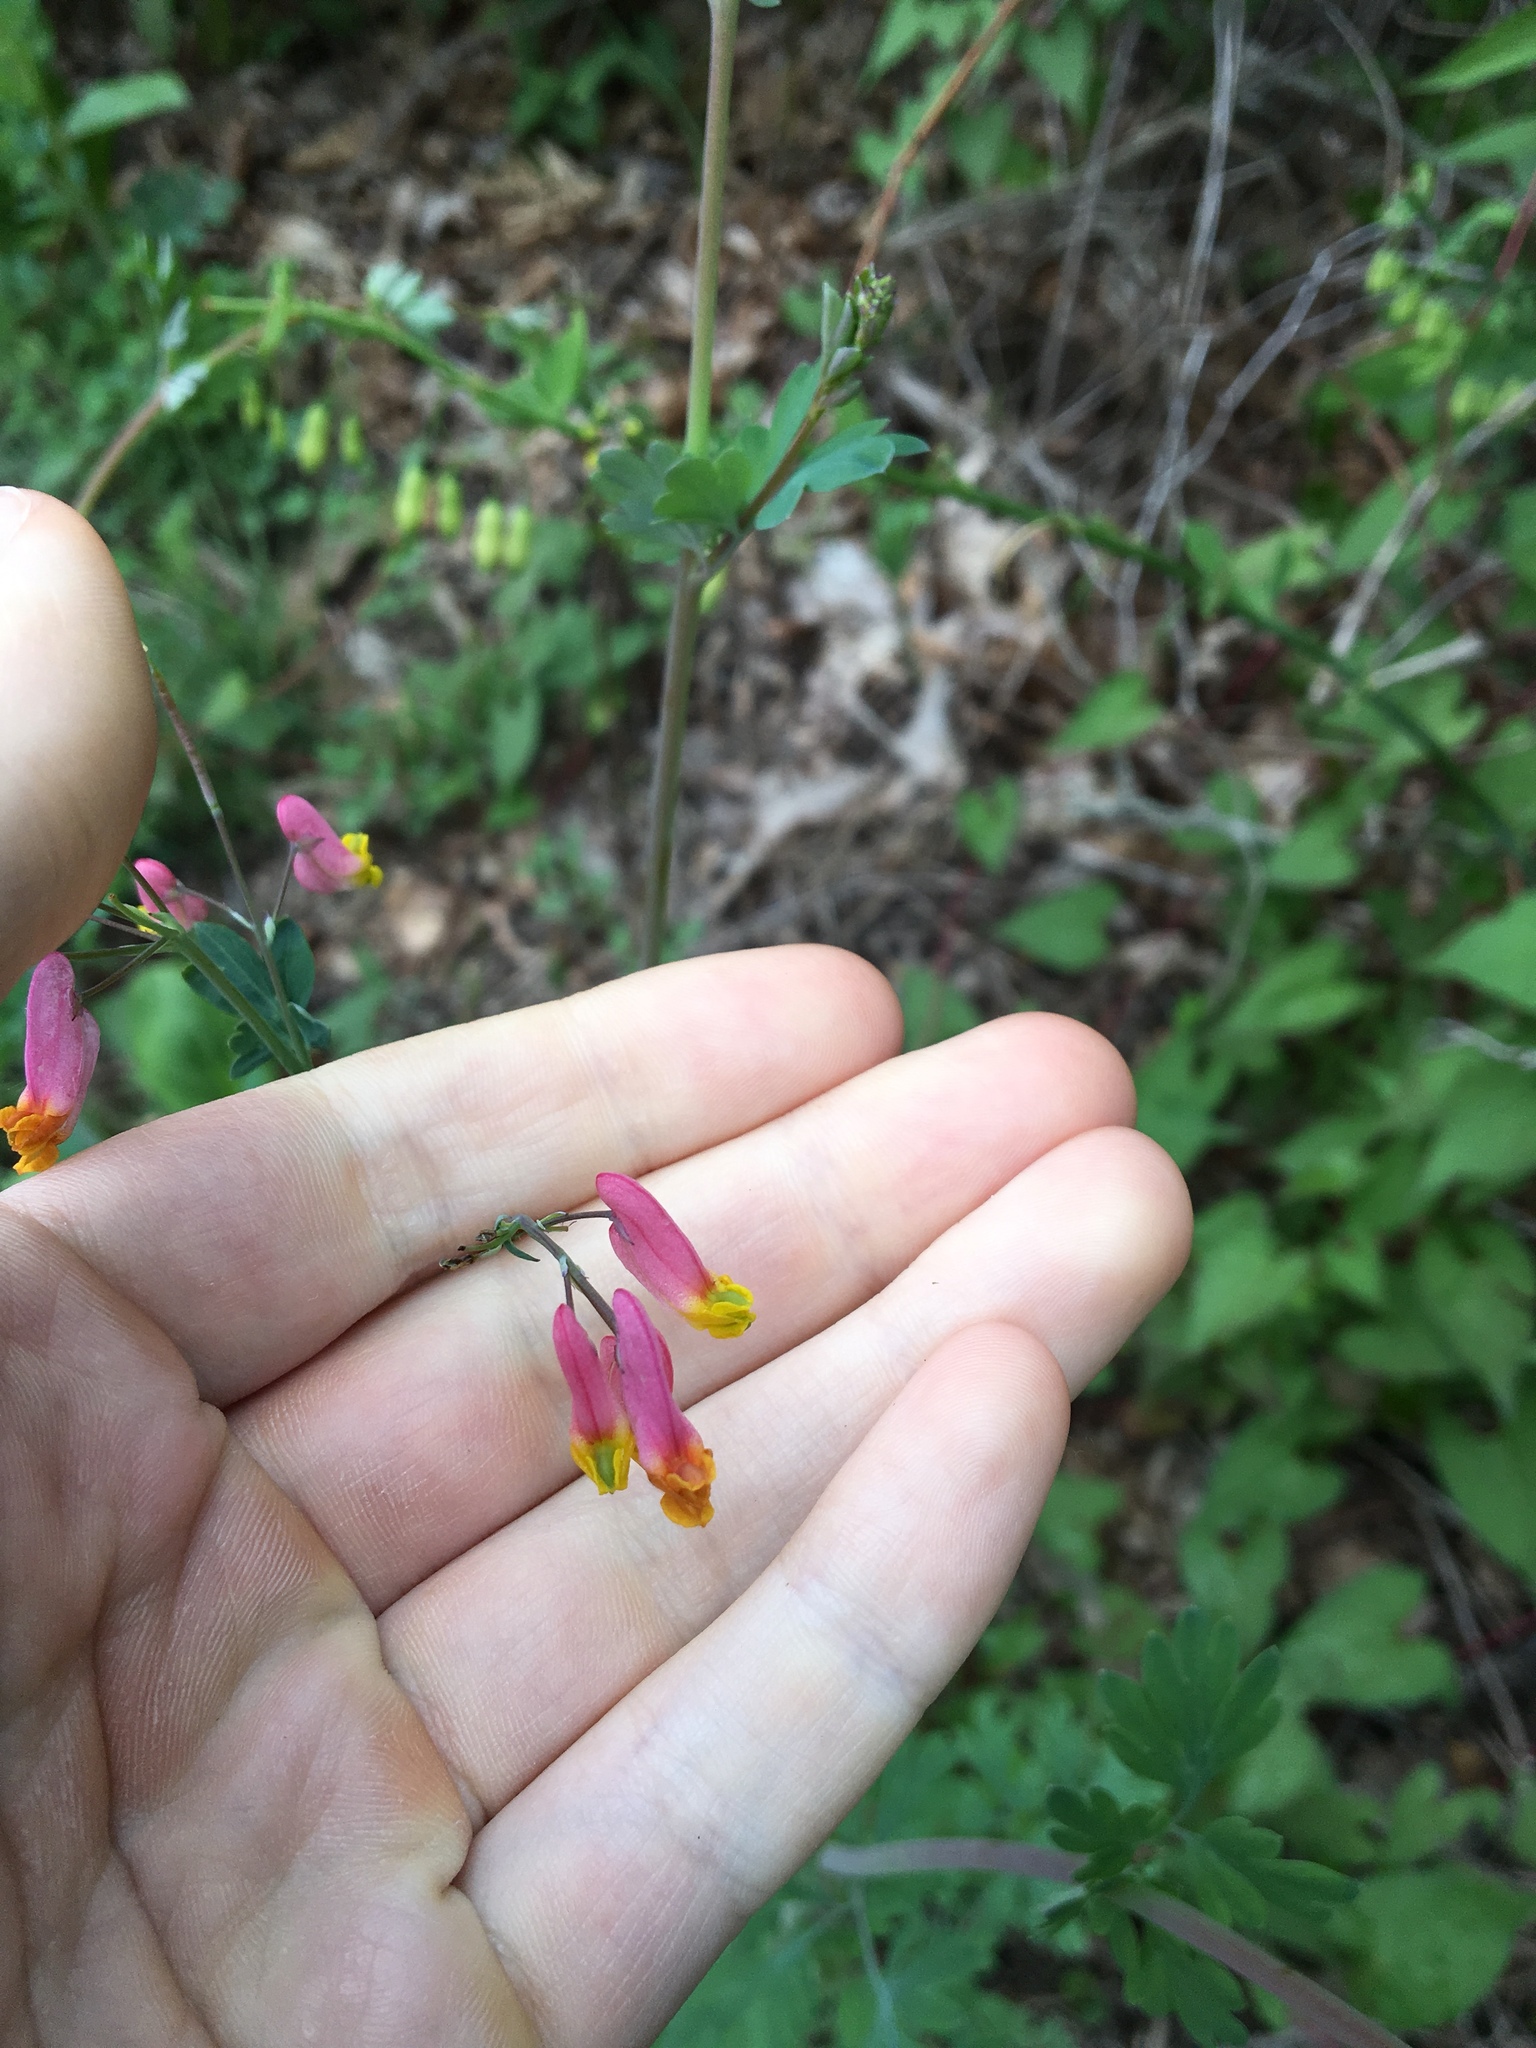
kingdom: Plantae
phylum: Tracheophyta
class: Magnoliopsida
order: Ranunculales
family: Papaveraceae
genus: Capnoides
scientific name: Capnoides sempervirens
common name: Rock harlequin
